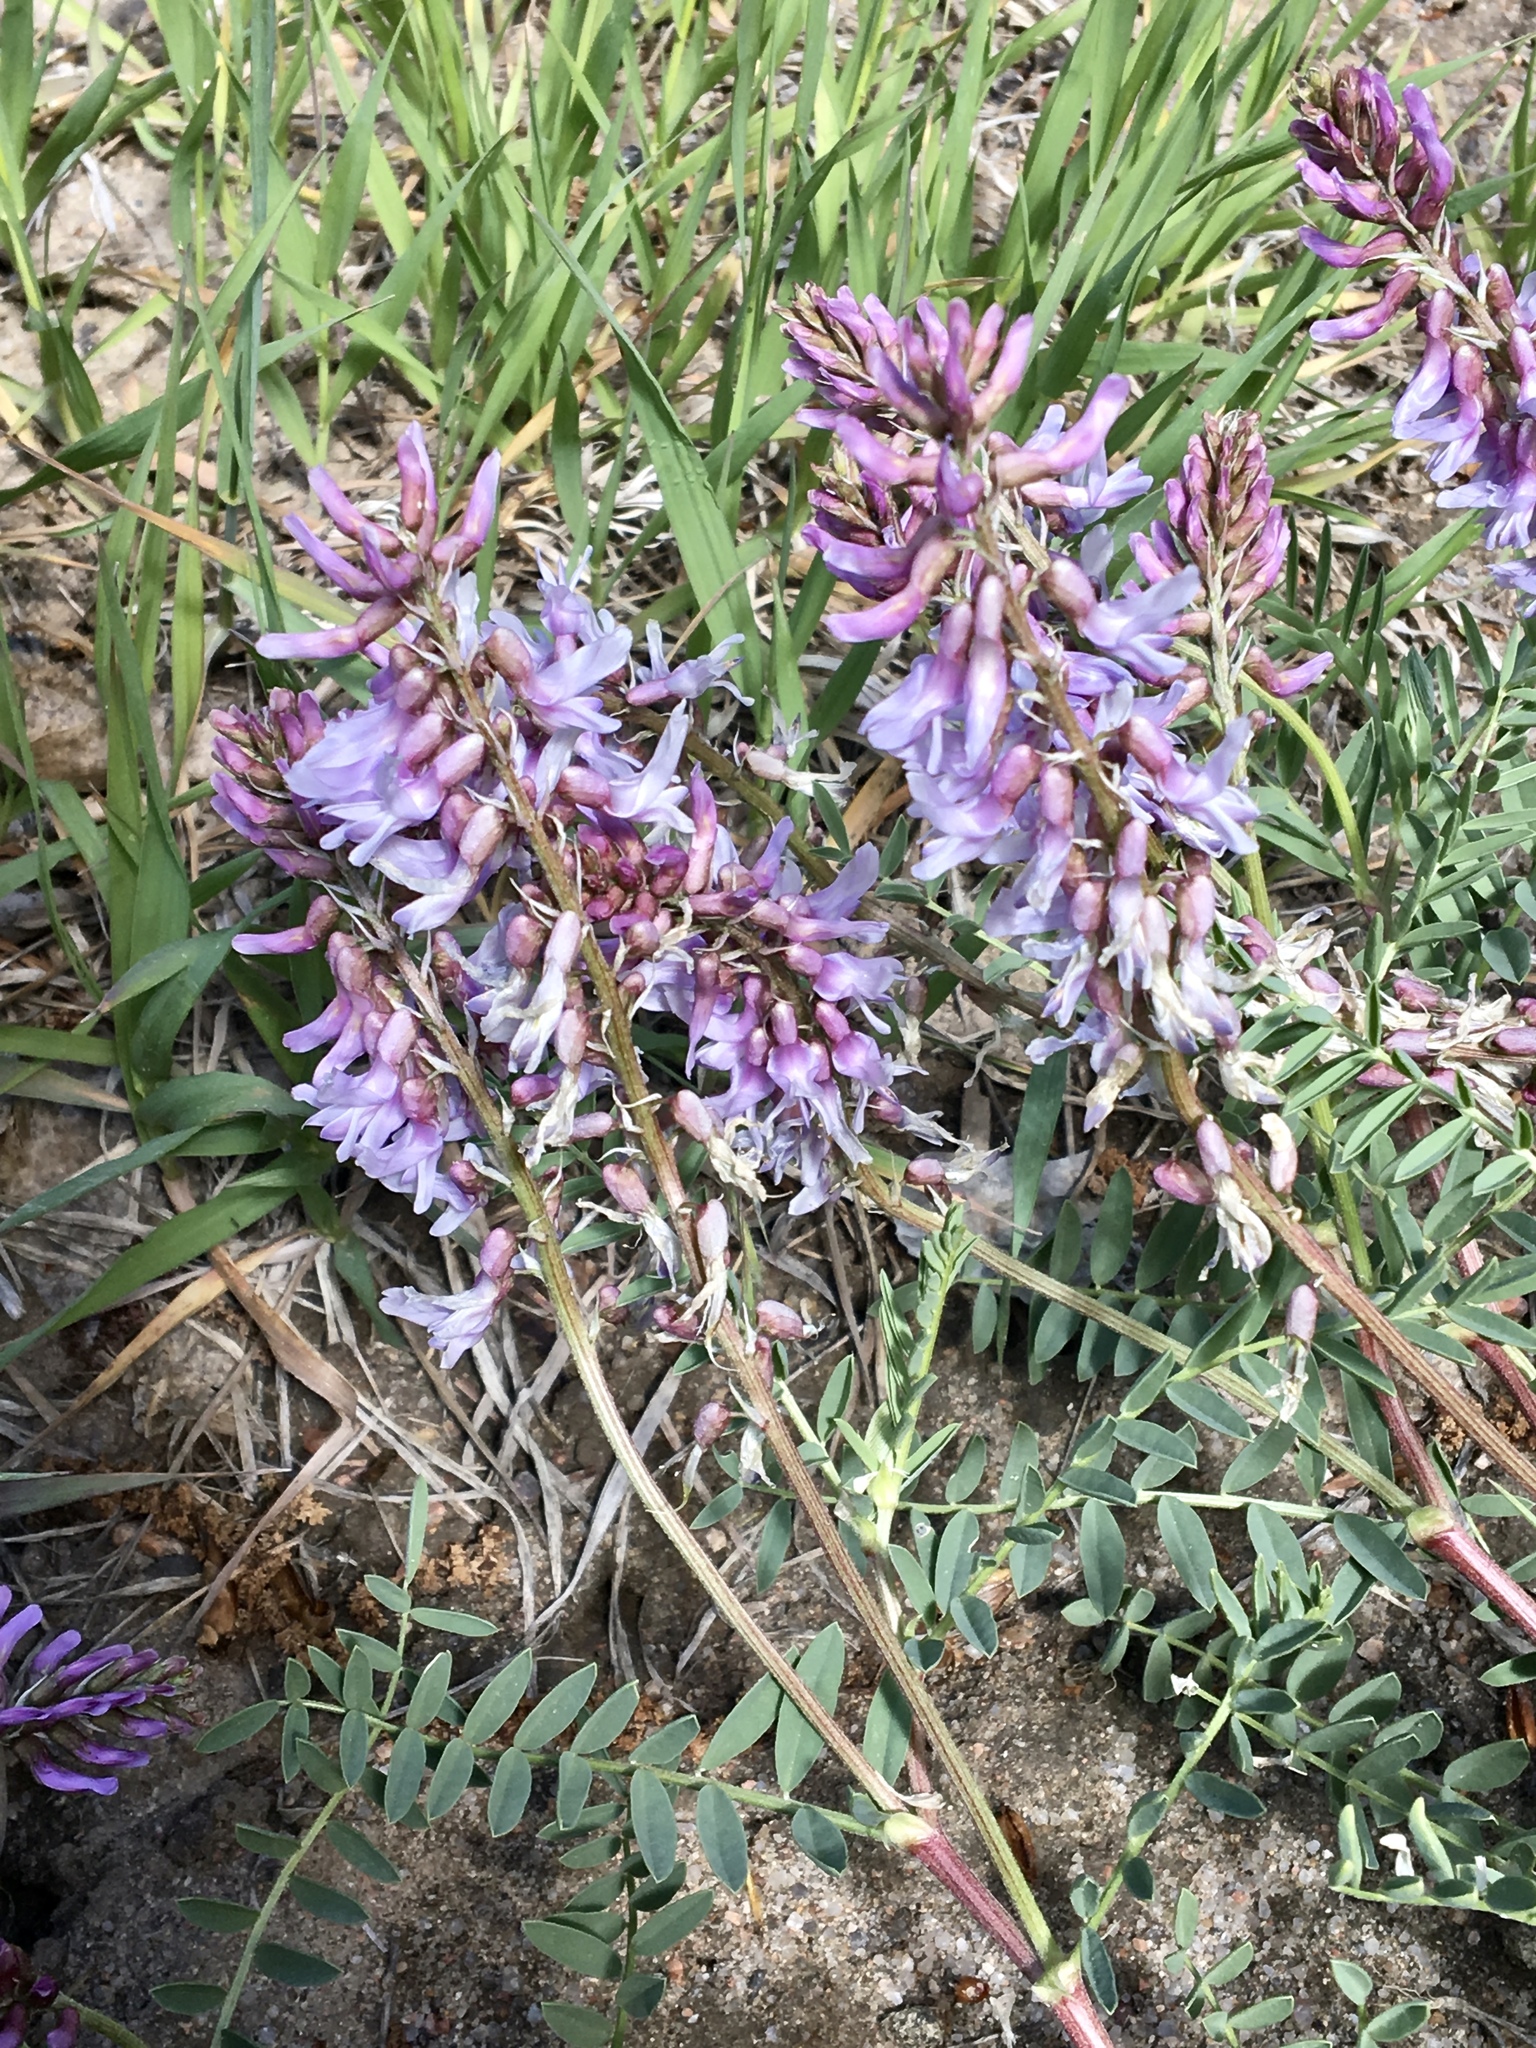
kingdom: Plantae
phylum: Tracheophyta
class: Magnoliopsida
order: Fabales
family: Fabaceae
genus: Astragalus
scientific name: Astragalus bisulcatus
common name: Two-groove milk-vetch
